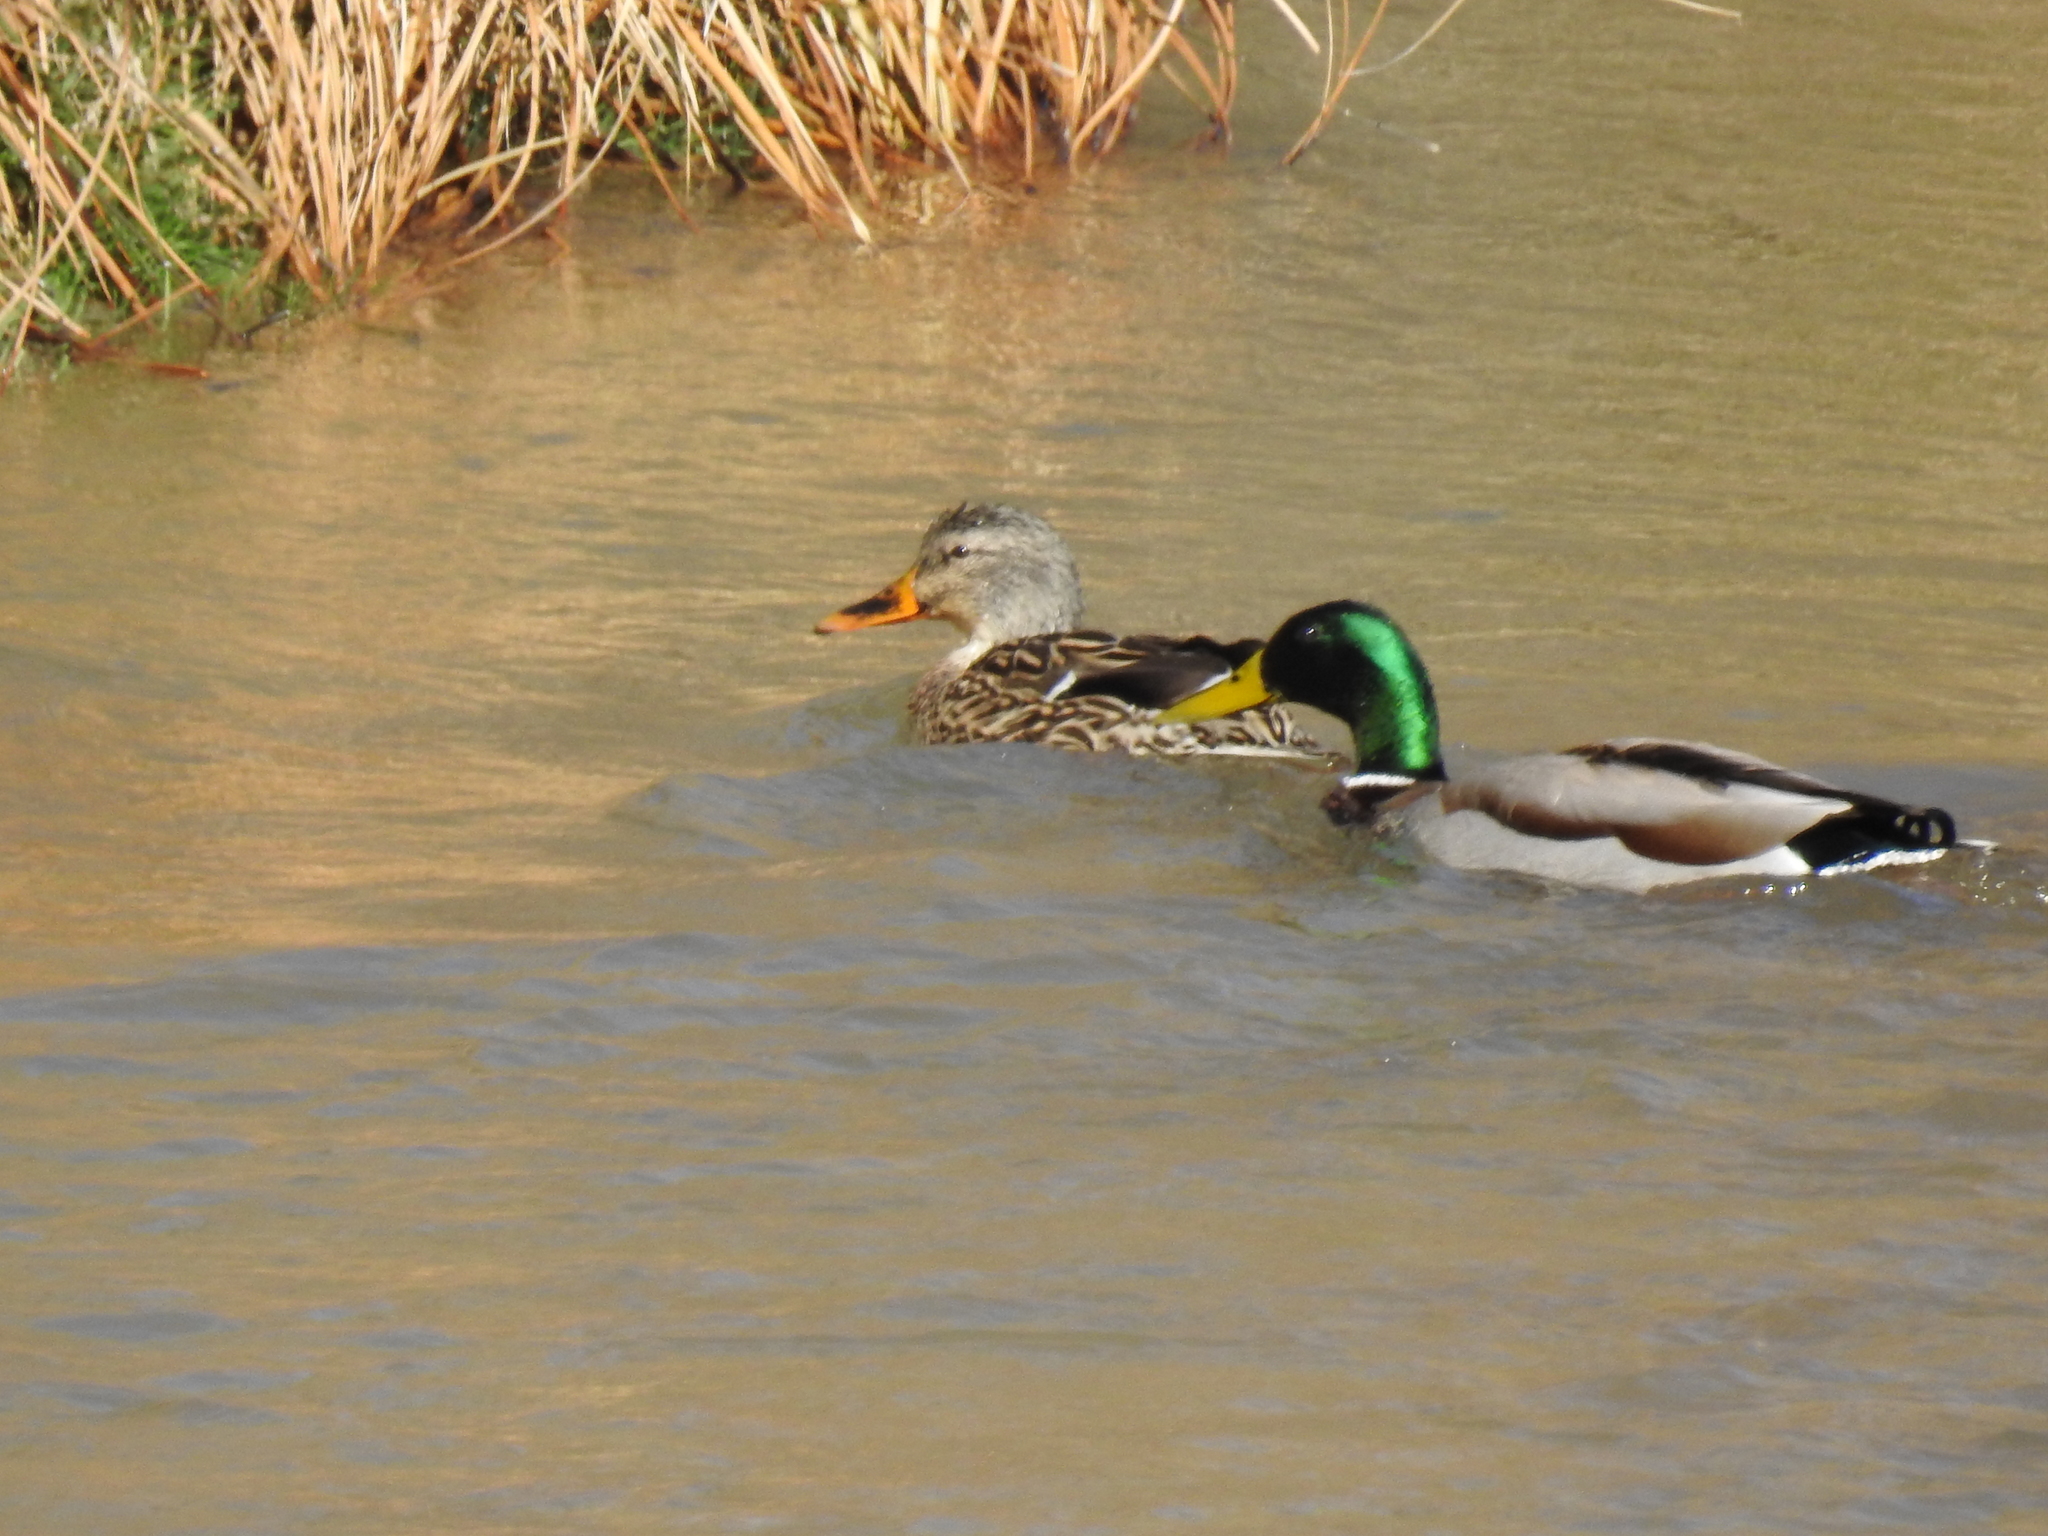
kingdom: Animalia
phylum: Chordata
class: Aves
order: Anseriformes
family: Anatidae
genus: Anas
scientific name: Anas platyrhynchos
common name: Mallard
